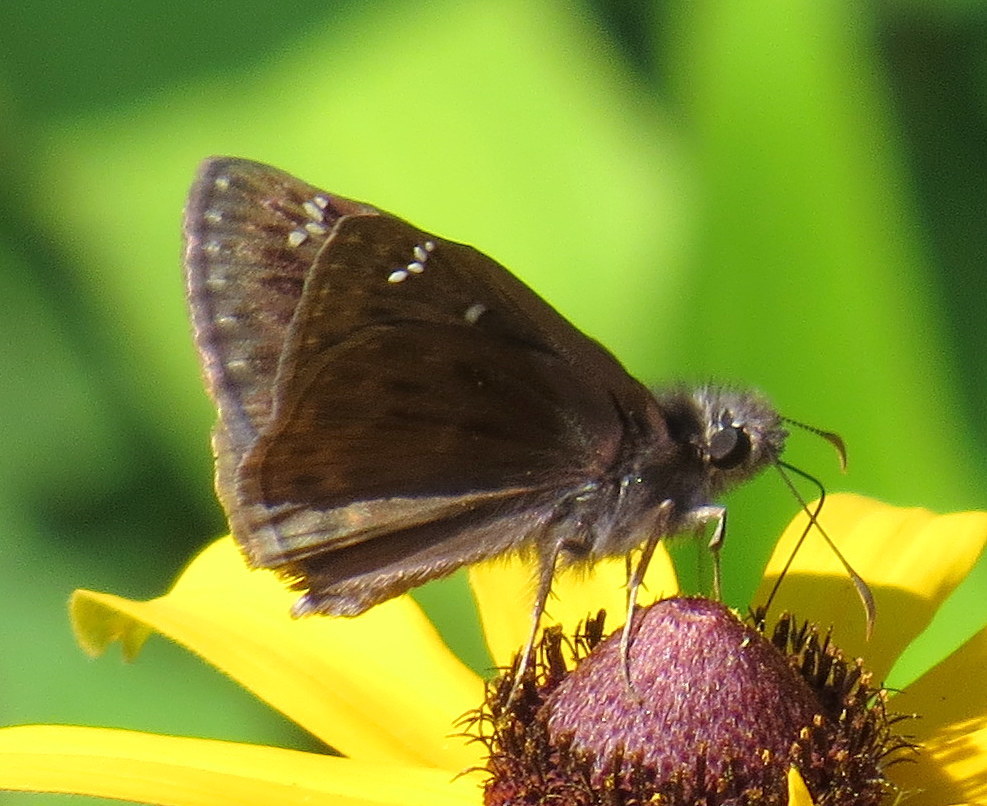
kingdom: Animalia
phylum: Arthropoda
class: Insecta
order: Lepidoptera
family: Hesperiidae
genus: Erynnis
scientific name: Erynnis horatius
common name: Horace's duskywing
